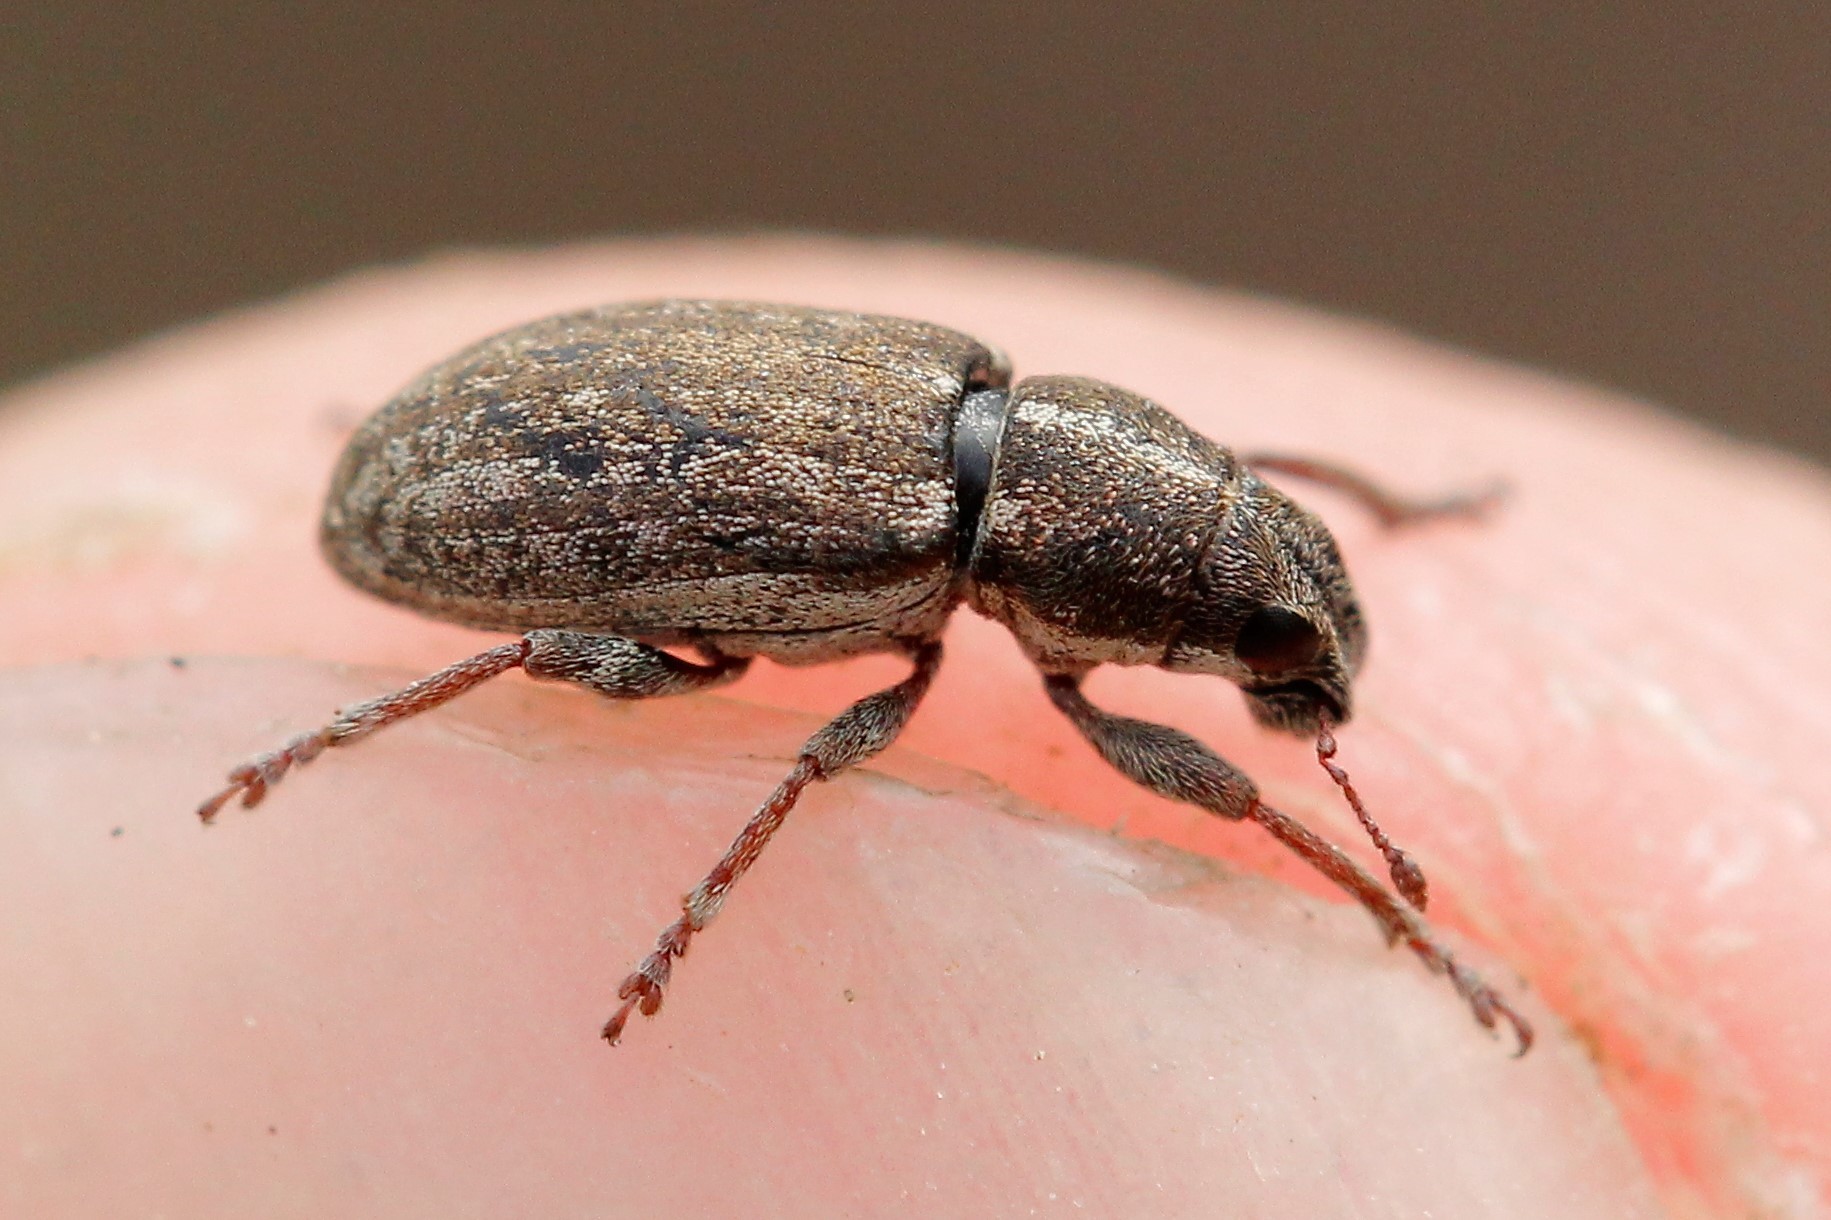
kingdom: Animalia
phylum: Arthropoda
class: Insecta
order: Coleoptera
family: Curculionidae
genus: Sitona
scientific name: Sitona inops
